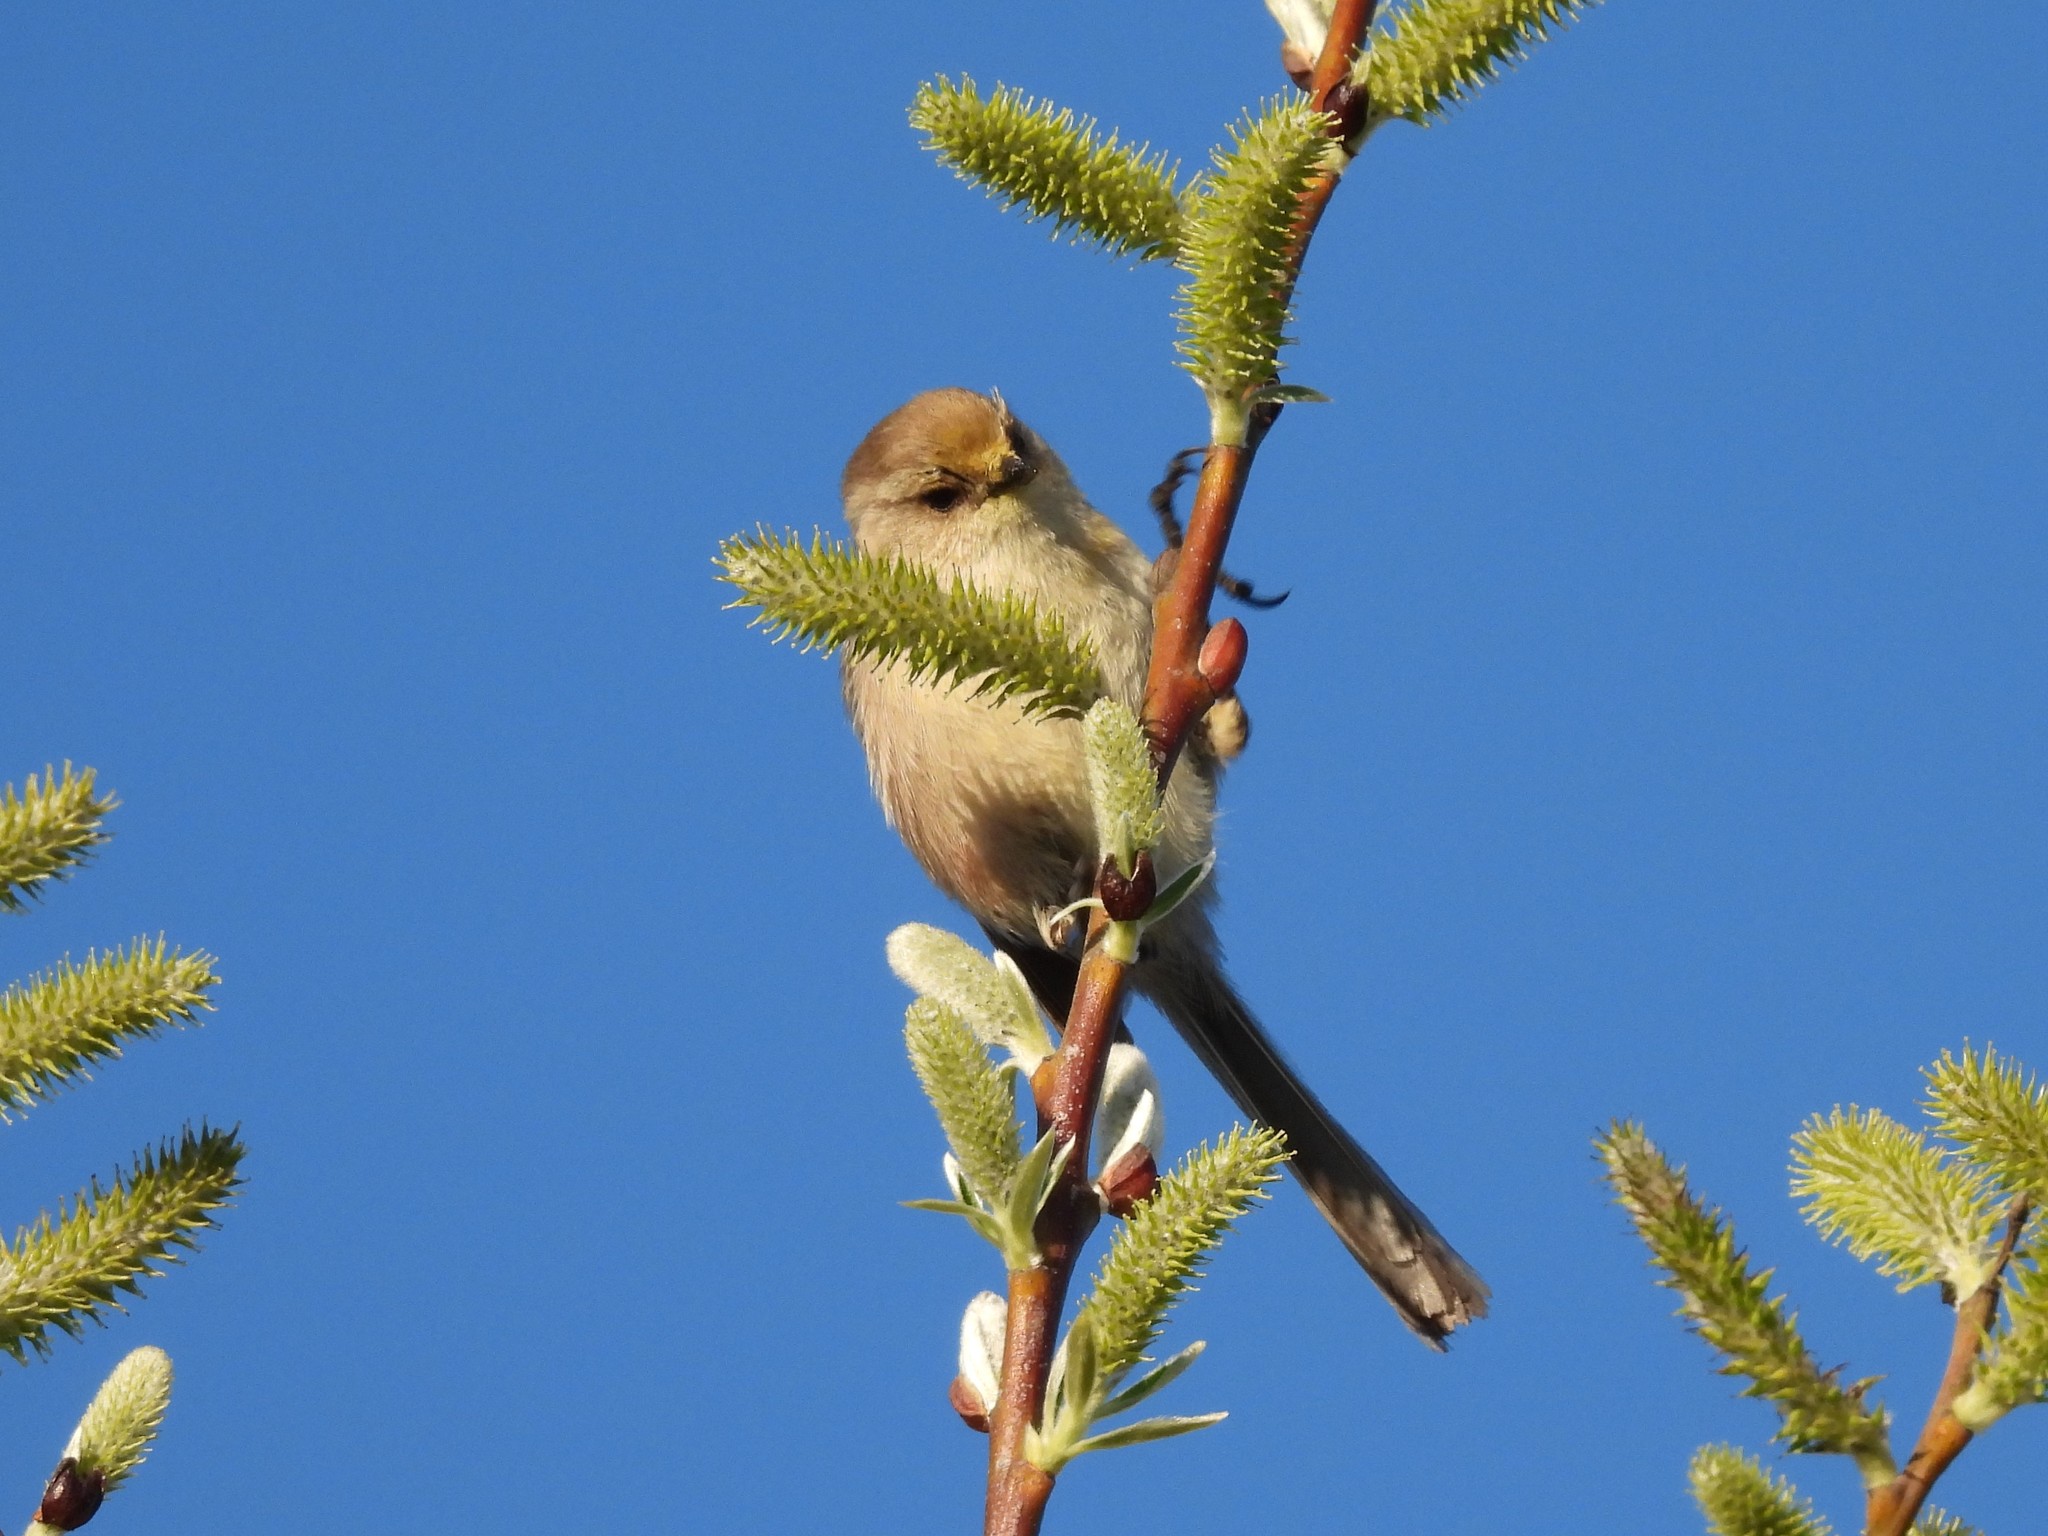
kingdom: Animalia
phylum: Chordata
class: Aves
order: Passeriformes
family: Aegithalidae
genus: Psaltriparus
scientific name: Psaltriparus minimus
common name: American bushtit
